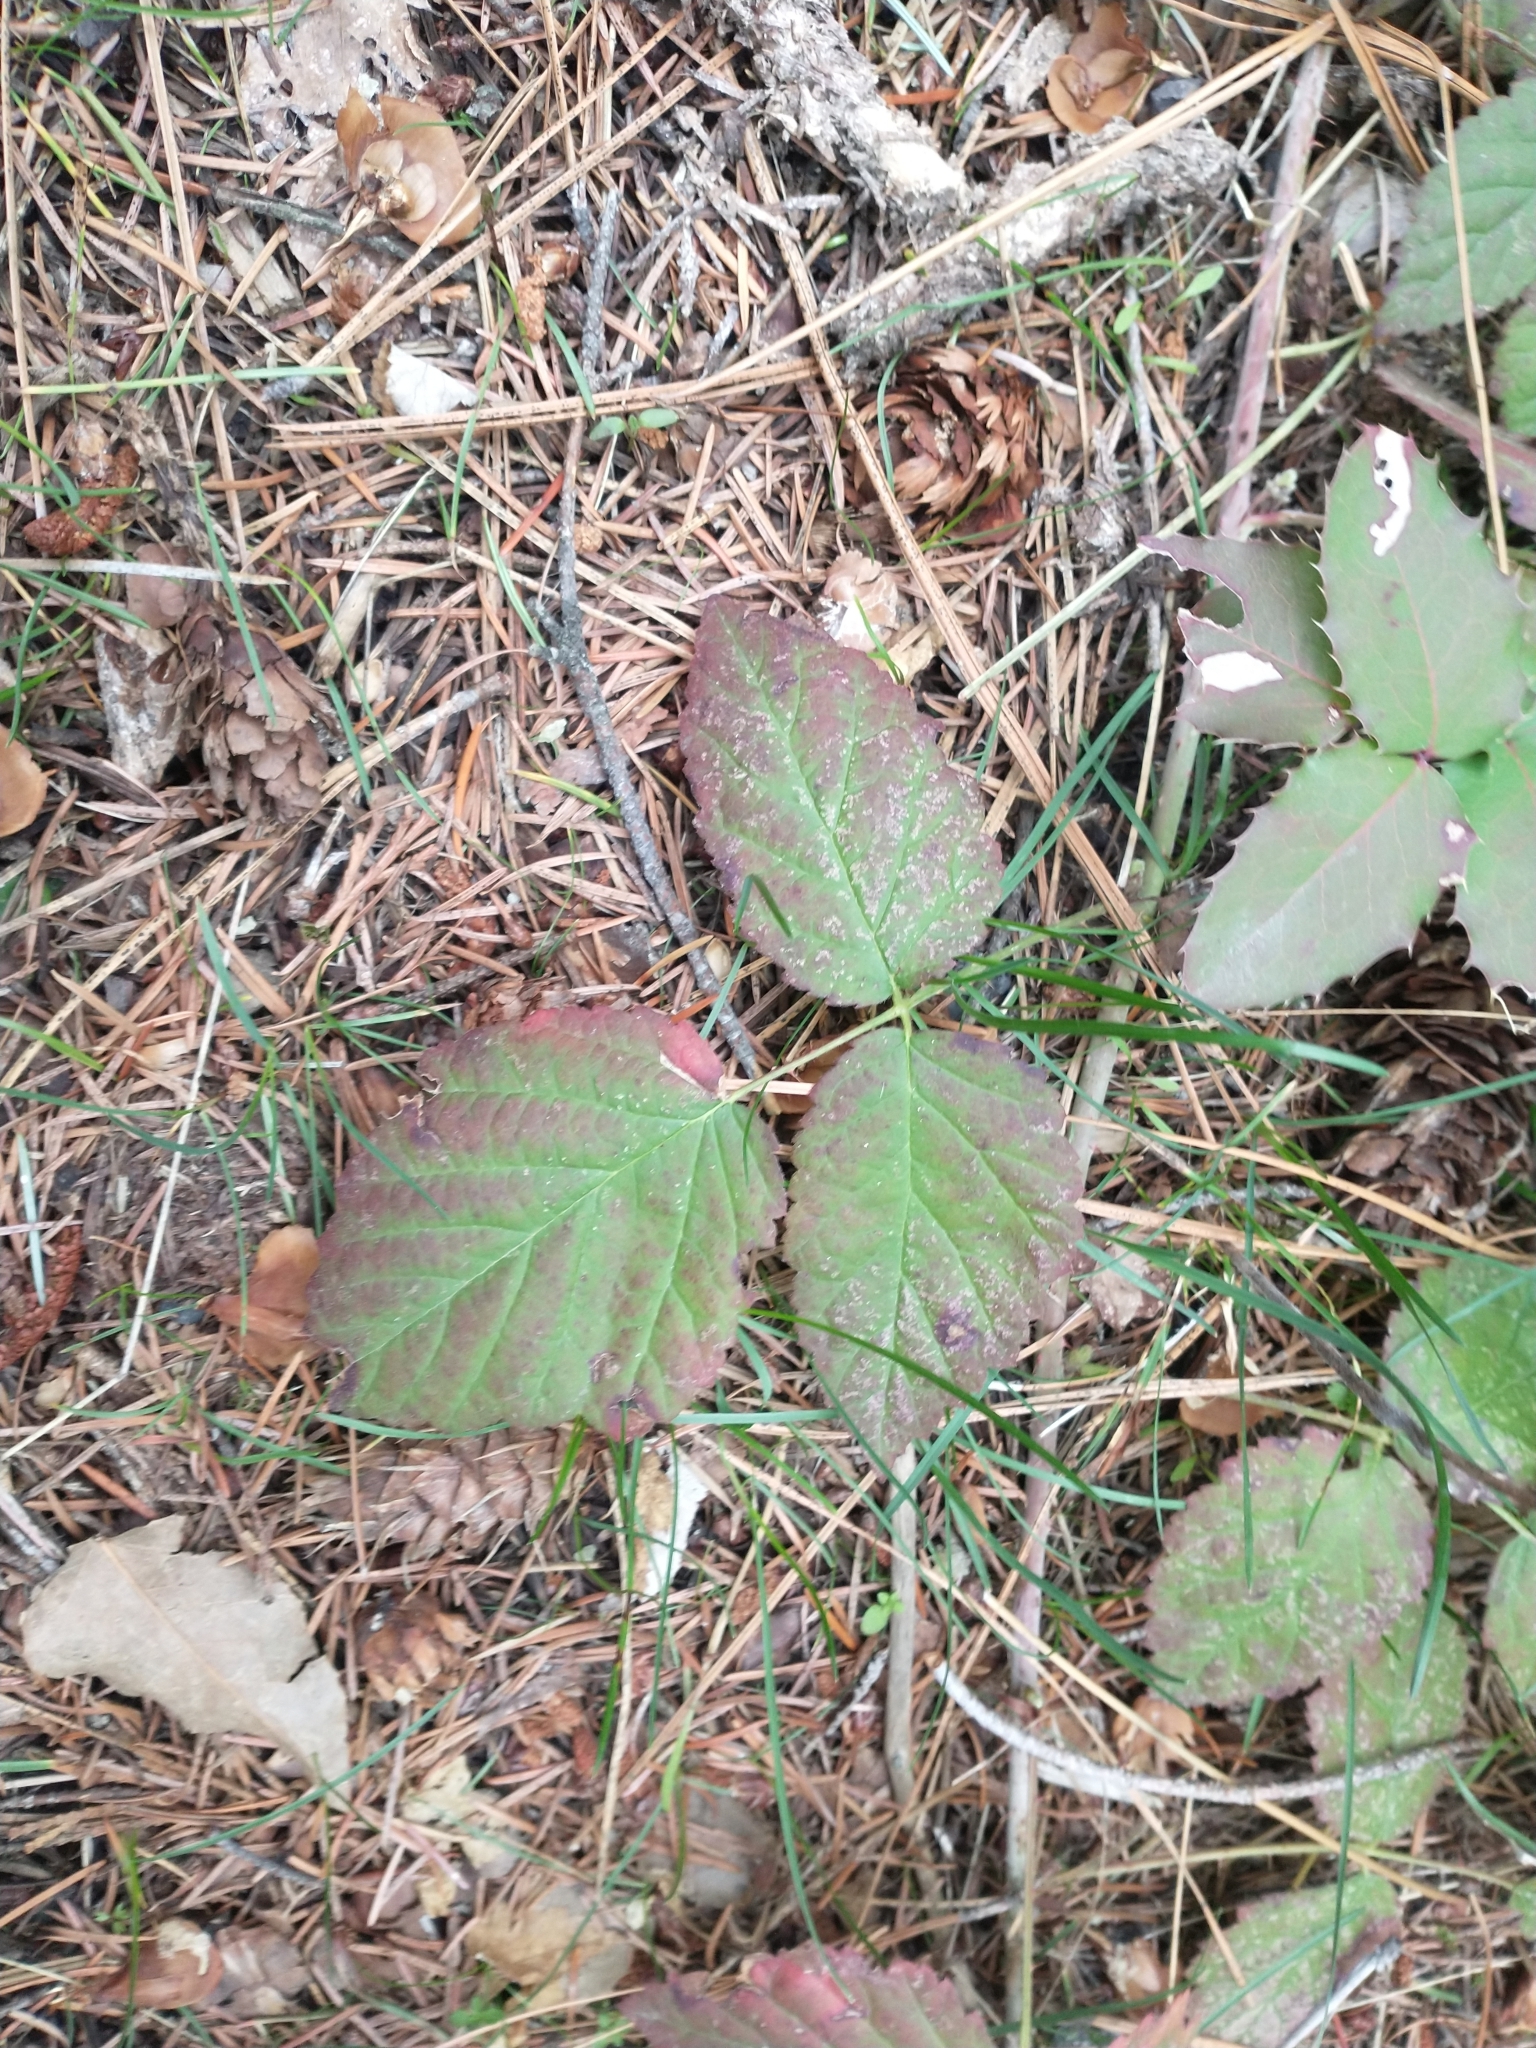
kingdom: Plantae
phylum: Tracheophyta
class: Magnoliopsida
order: Rosales
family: Rosaceae
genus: Rubus
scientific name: Rubus ursinus
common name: Pacific blackberry
